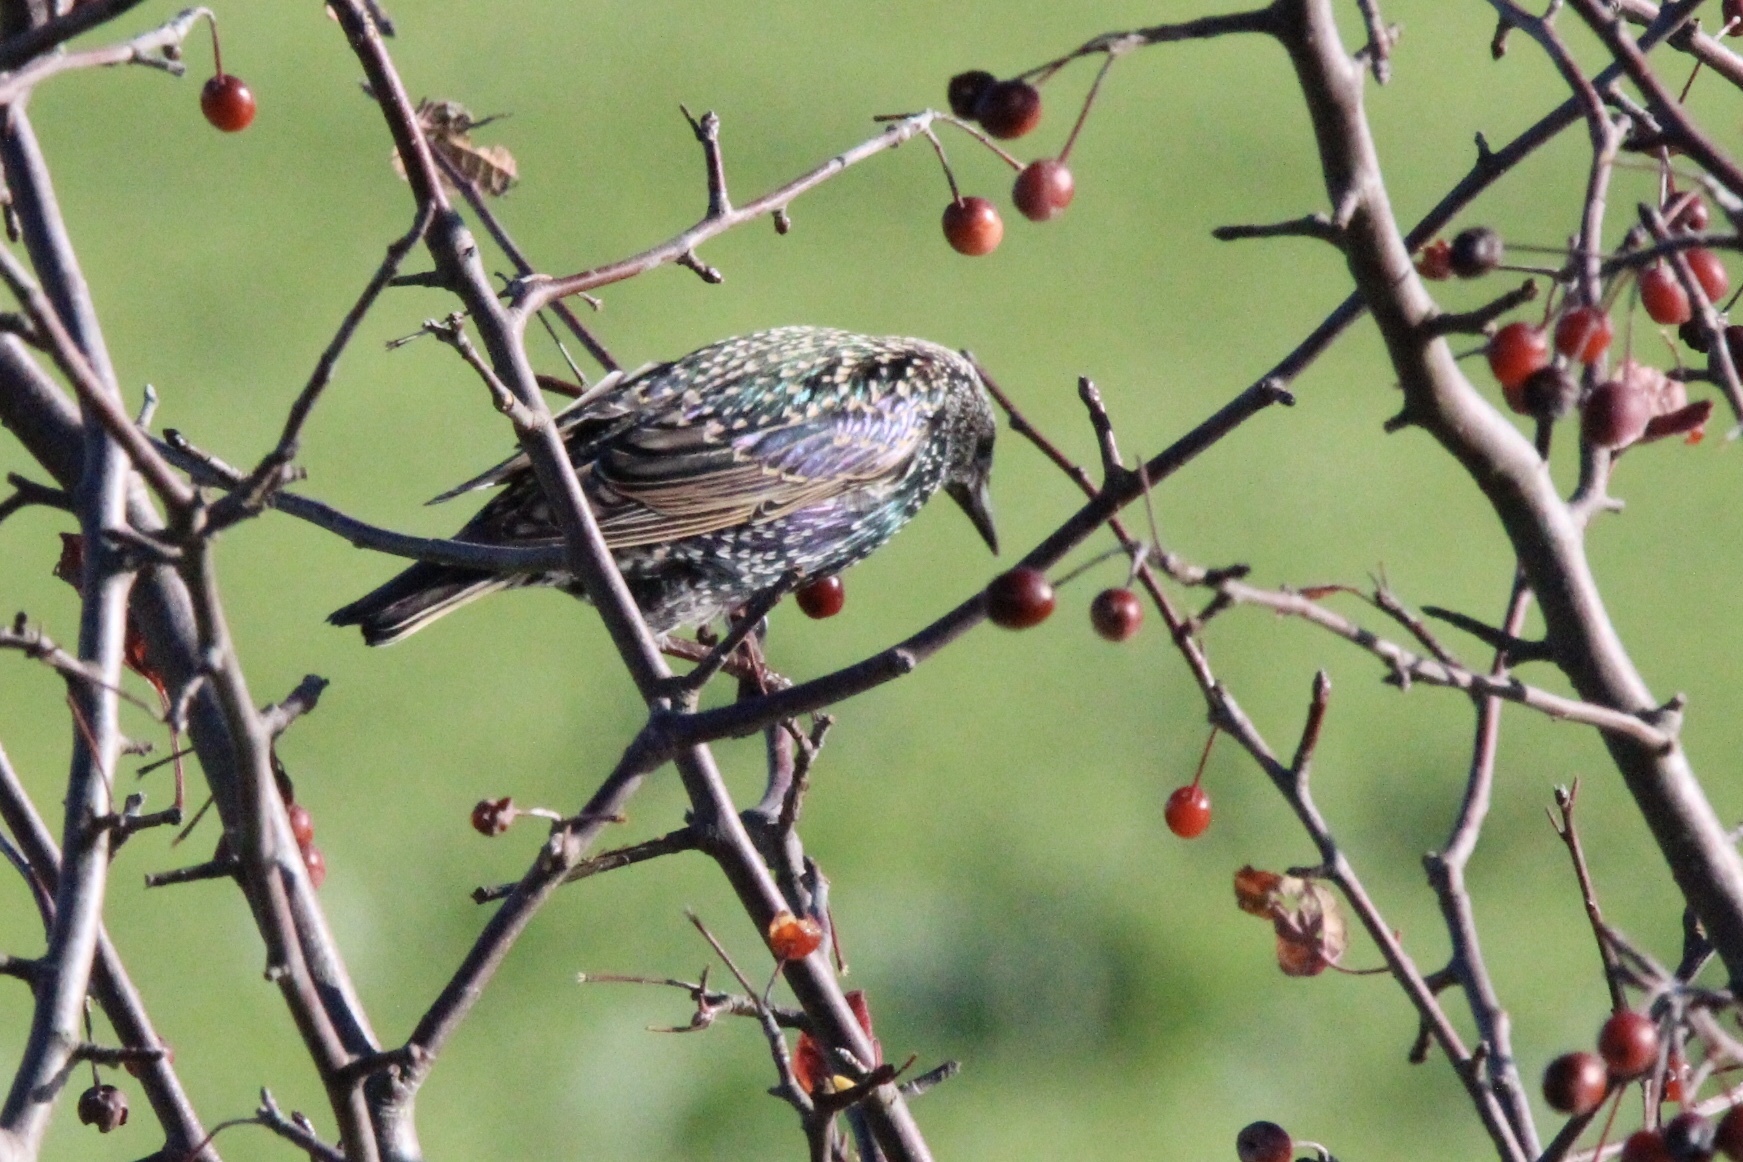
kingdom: Animalia
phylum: Chordata
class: Aves
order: Passeriformes
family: Sturnidae
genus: Sturnus
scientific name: Sturnus vulgaris
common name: Common starling
